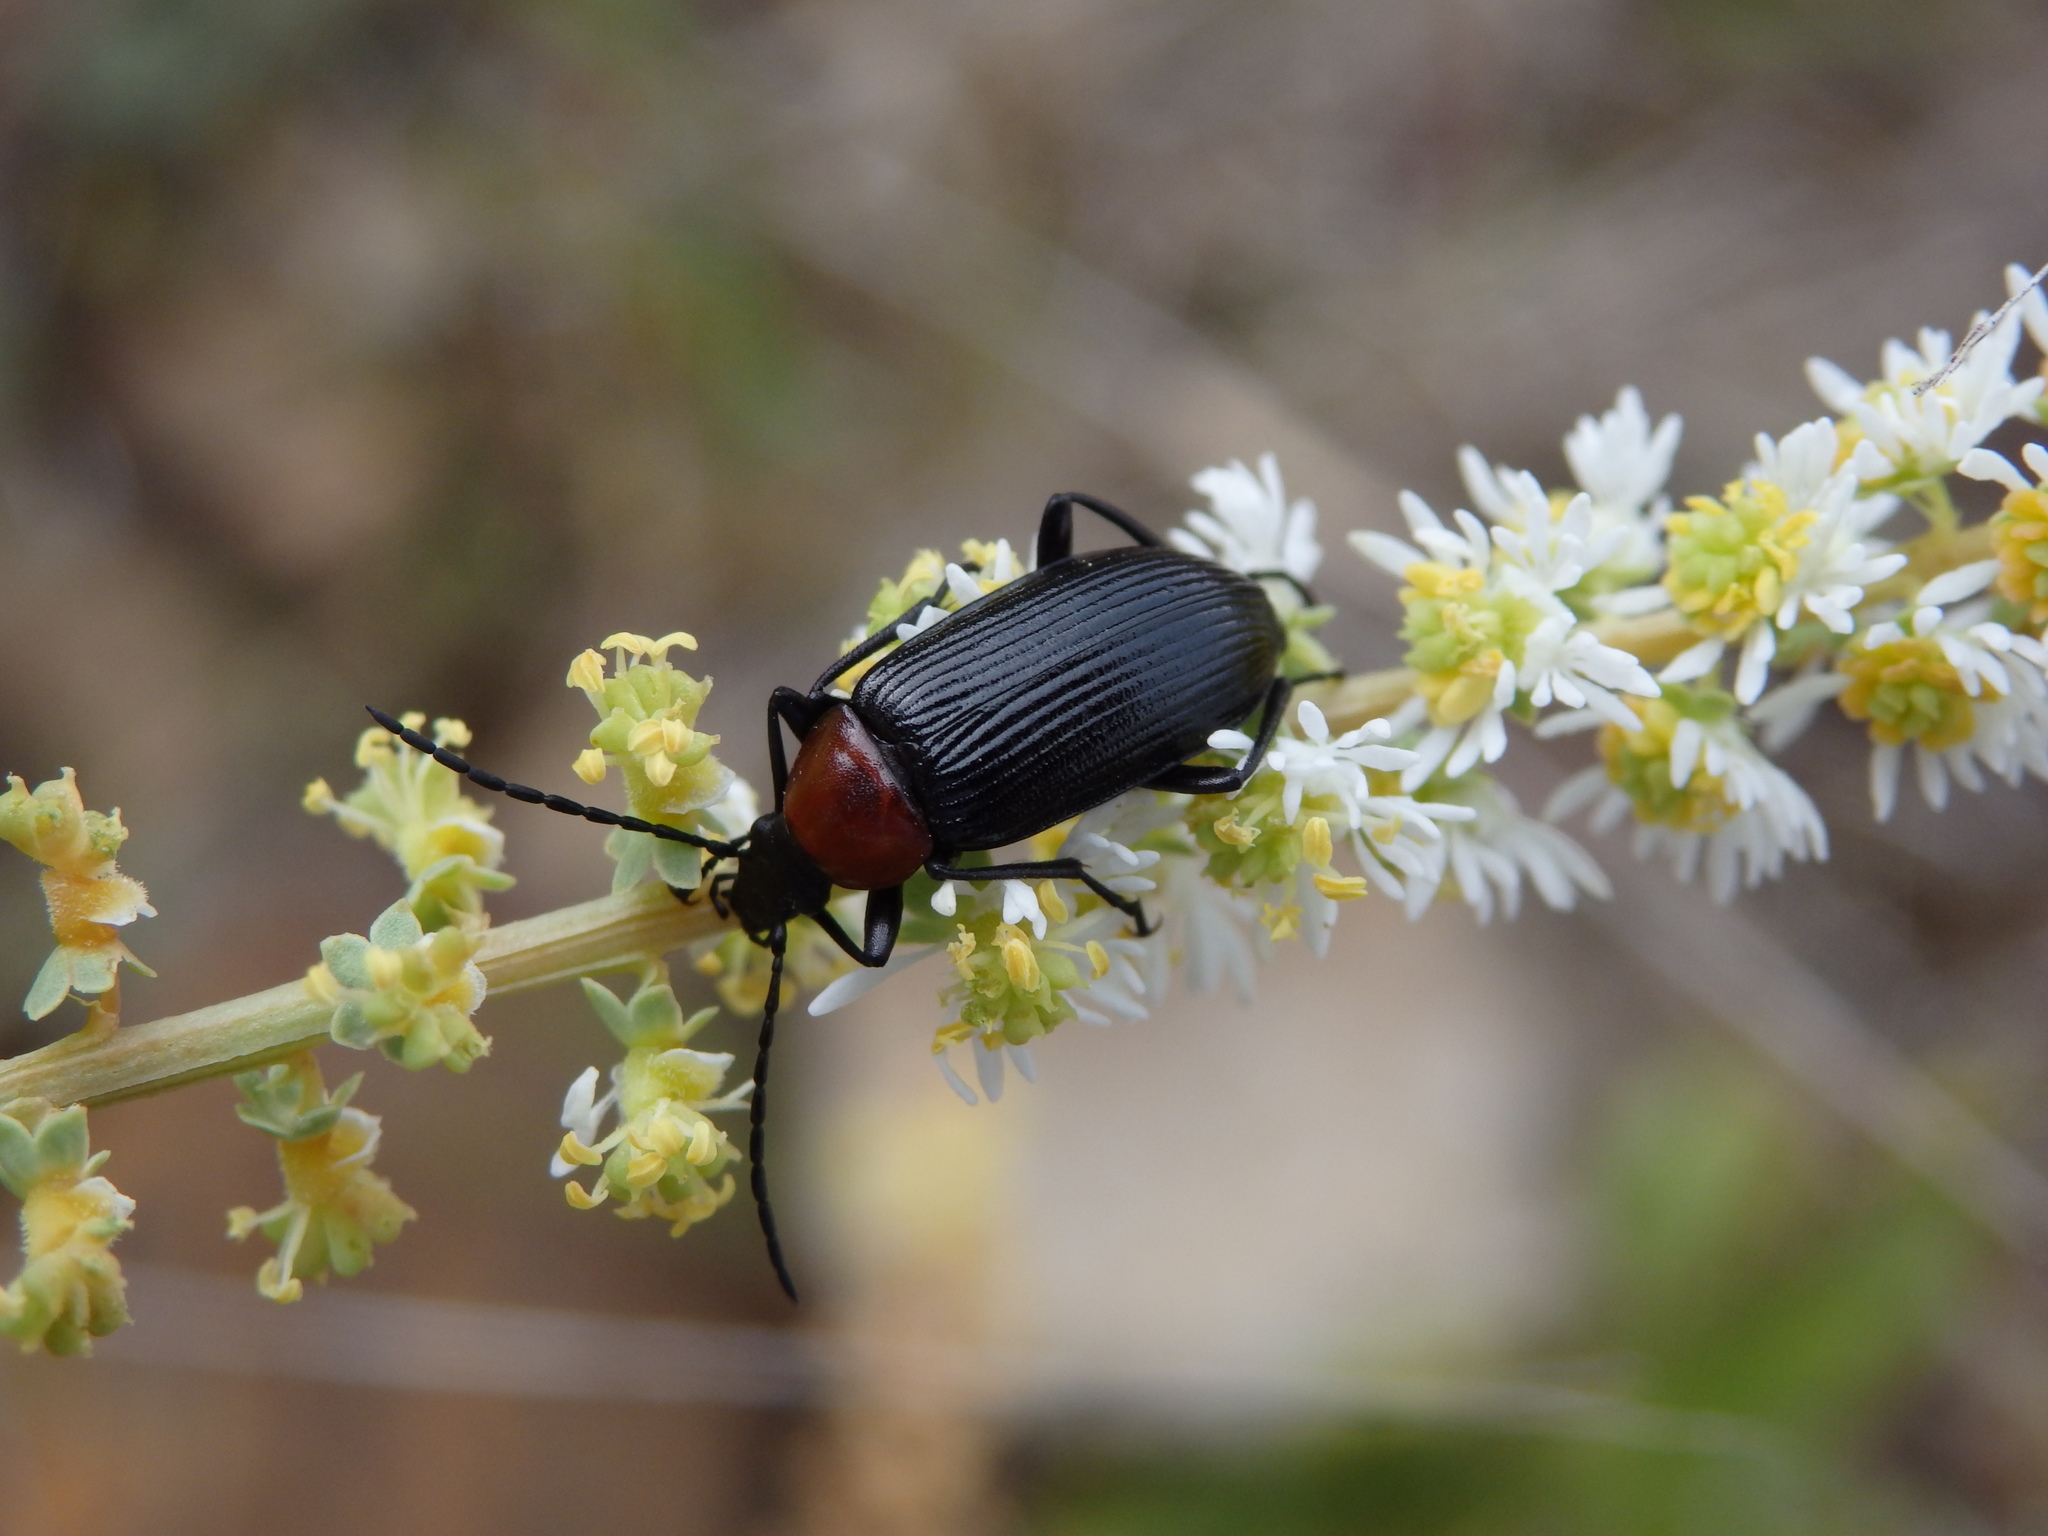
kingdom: Animalia
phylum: Arthropoda
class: Insecta
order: Coleoptera
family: Tenebrionidae
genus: Heliotaurus
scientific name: Heliotaurus ruficollis
